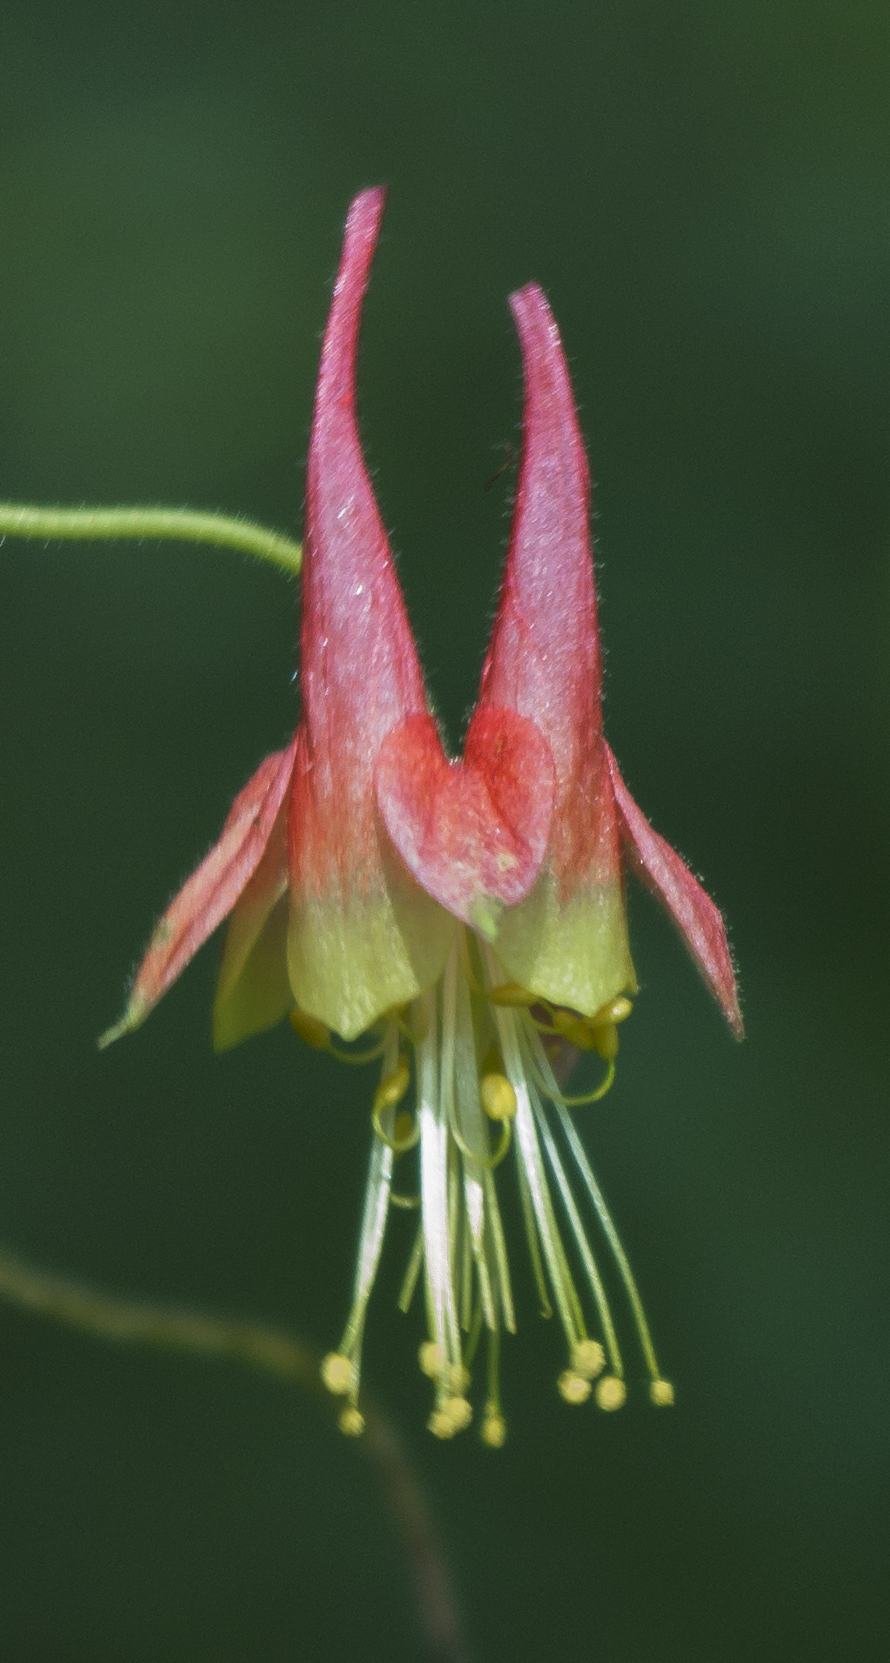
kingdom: Plantae
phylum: Tracheophyta
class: Magnoliopsida
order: Ranunculales
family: Ranunculaceae
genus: Aquilegia
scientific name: Aquilegia canadensis
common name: American columbine
